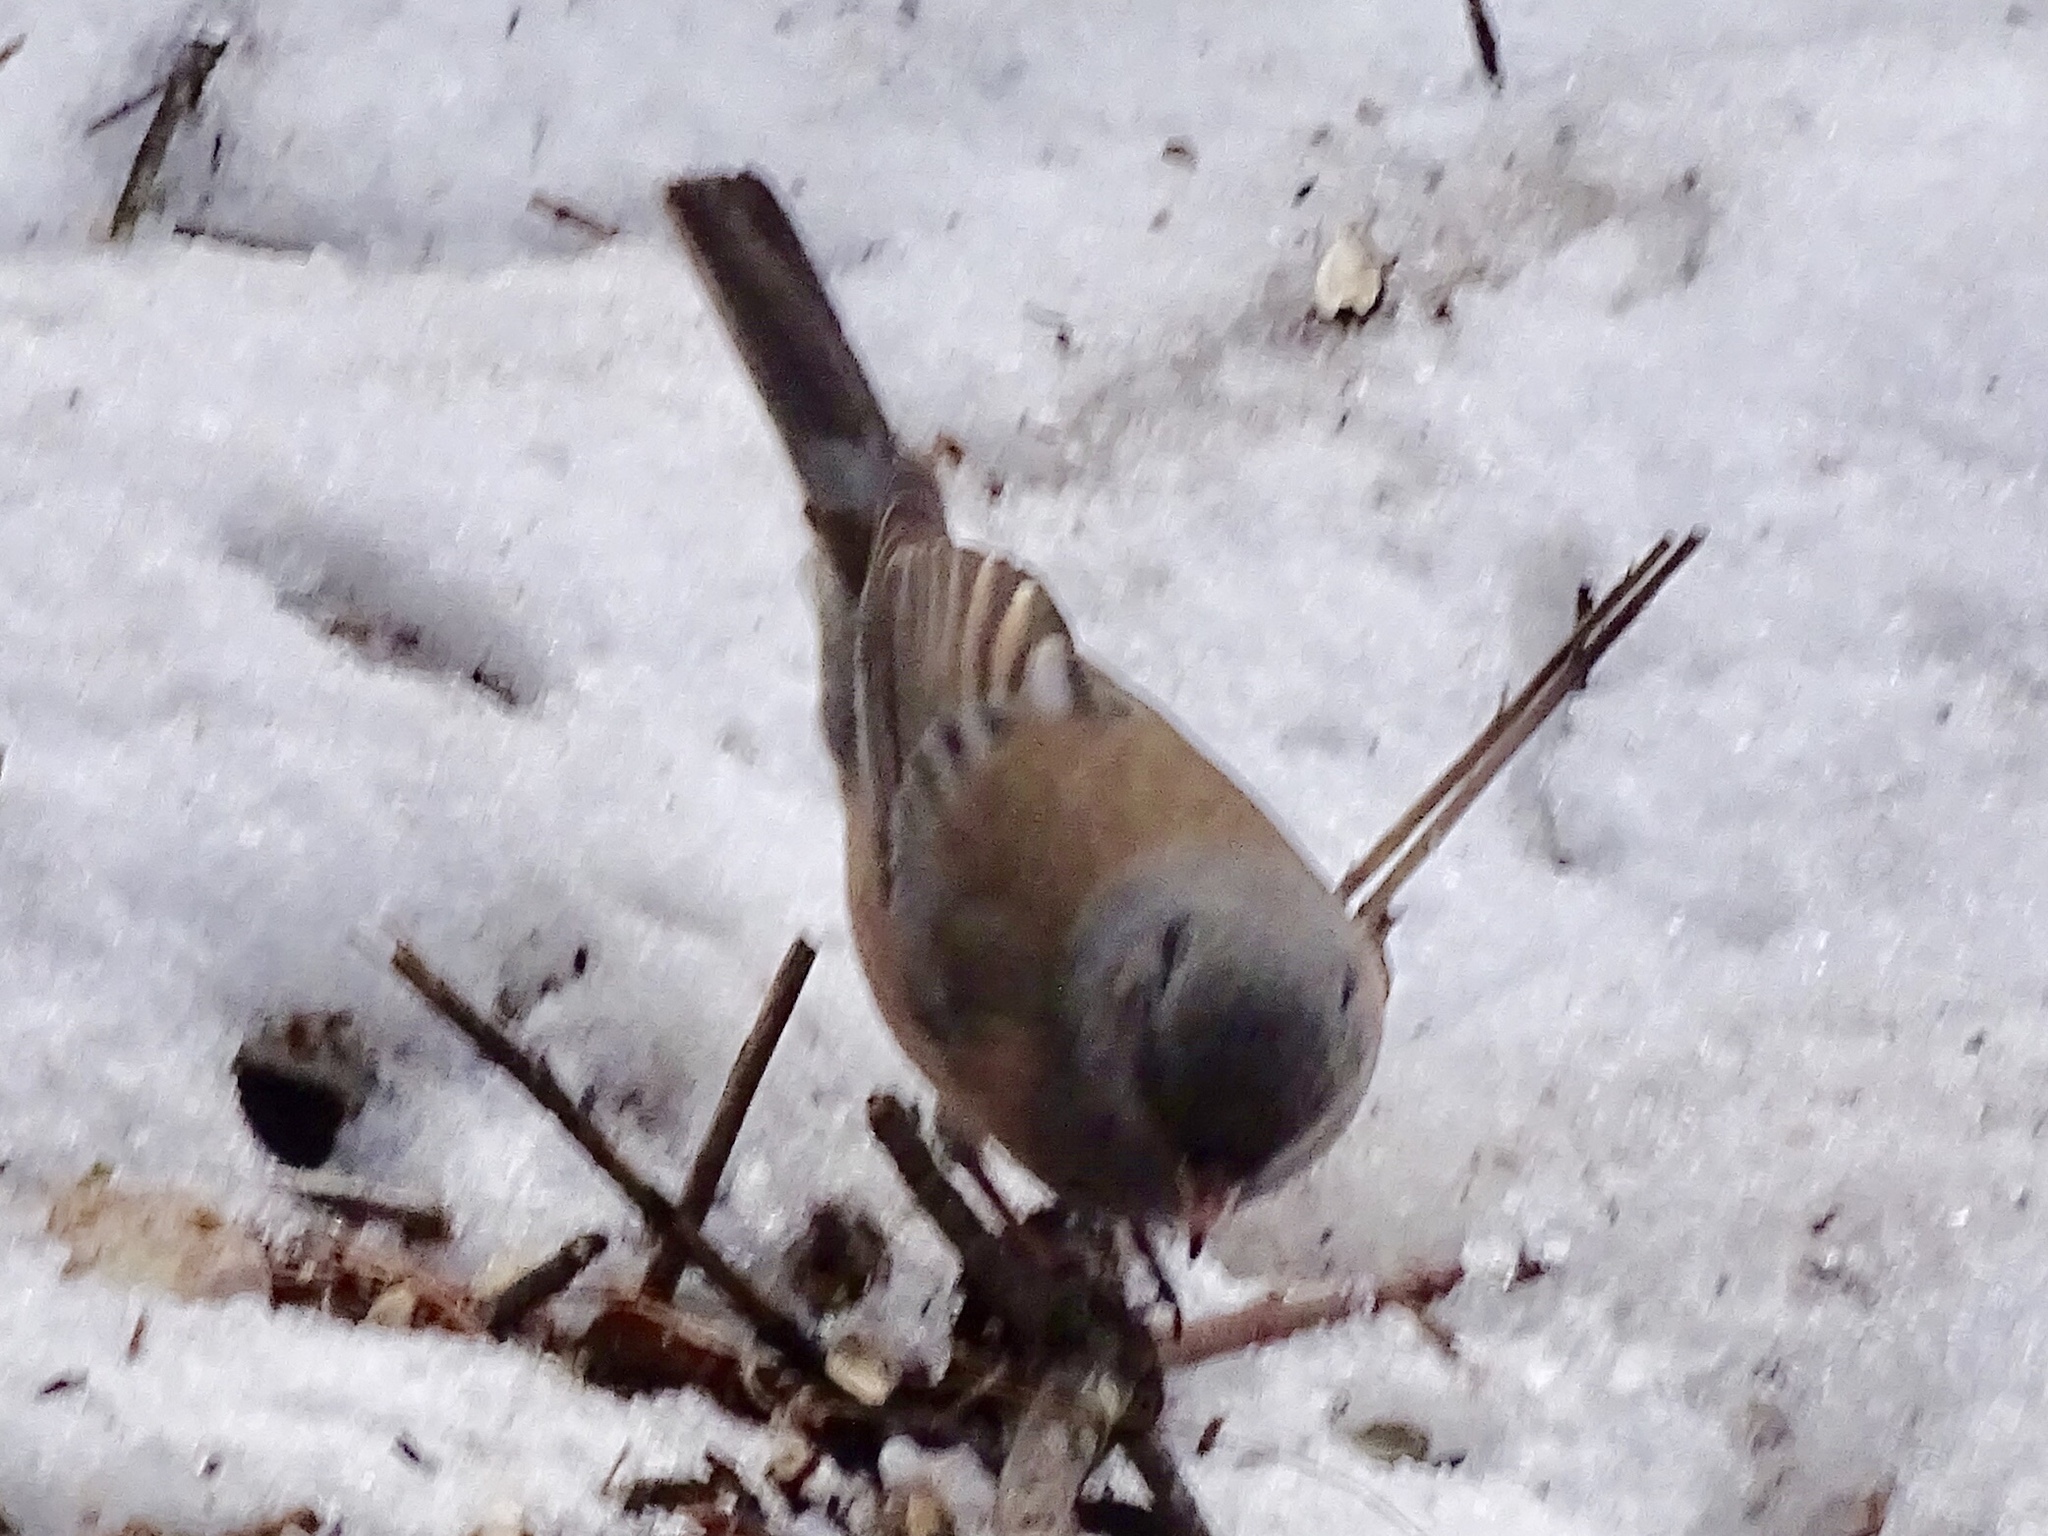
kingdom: Animalia
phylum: Chordata
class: Aves
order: Passeriformes
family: Passerellidae
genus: Junco
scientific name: Junco hyemalis
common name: Dark-eyed junco
